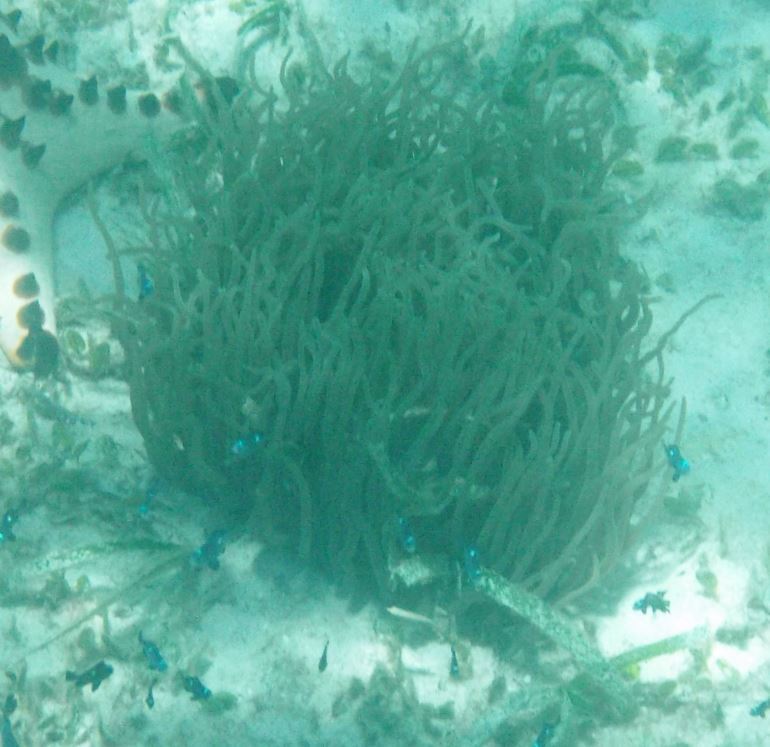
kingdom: Animalia
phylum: Cnidaria
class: Anthozoa
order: Actiniaria
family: Heteractidae
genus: Heteractis
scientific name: Heteractis
